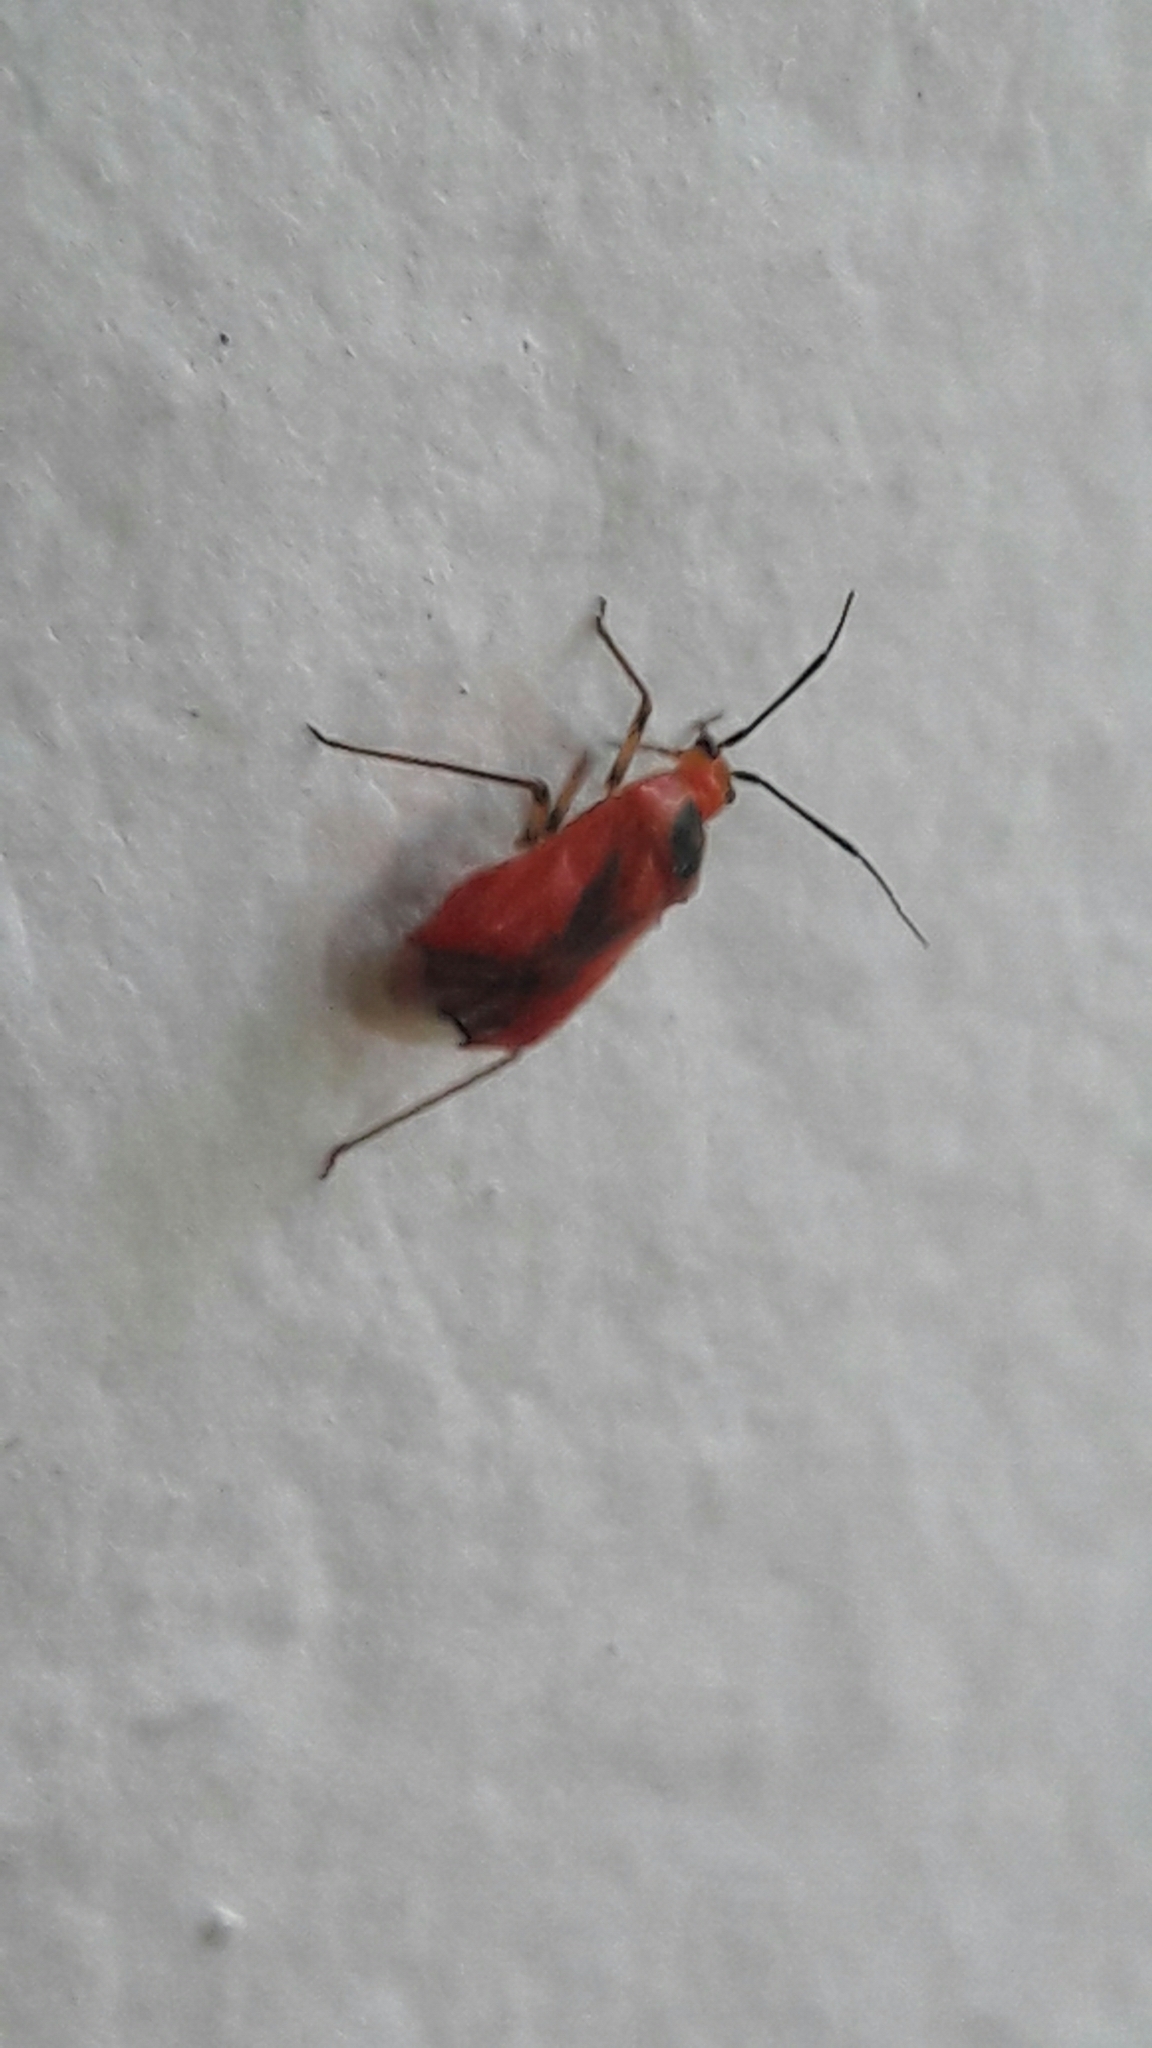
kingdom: Animalia
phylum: Arthropoda
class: Insecta
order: Hemiptera
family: Miridae
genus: Ambracius
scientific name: Ambracius dufouri
